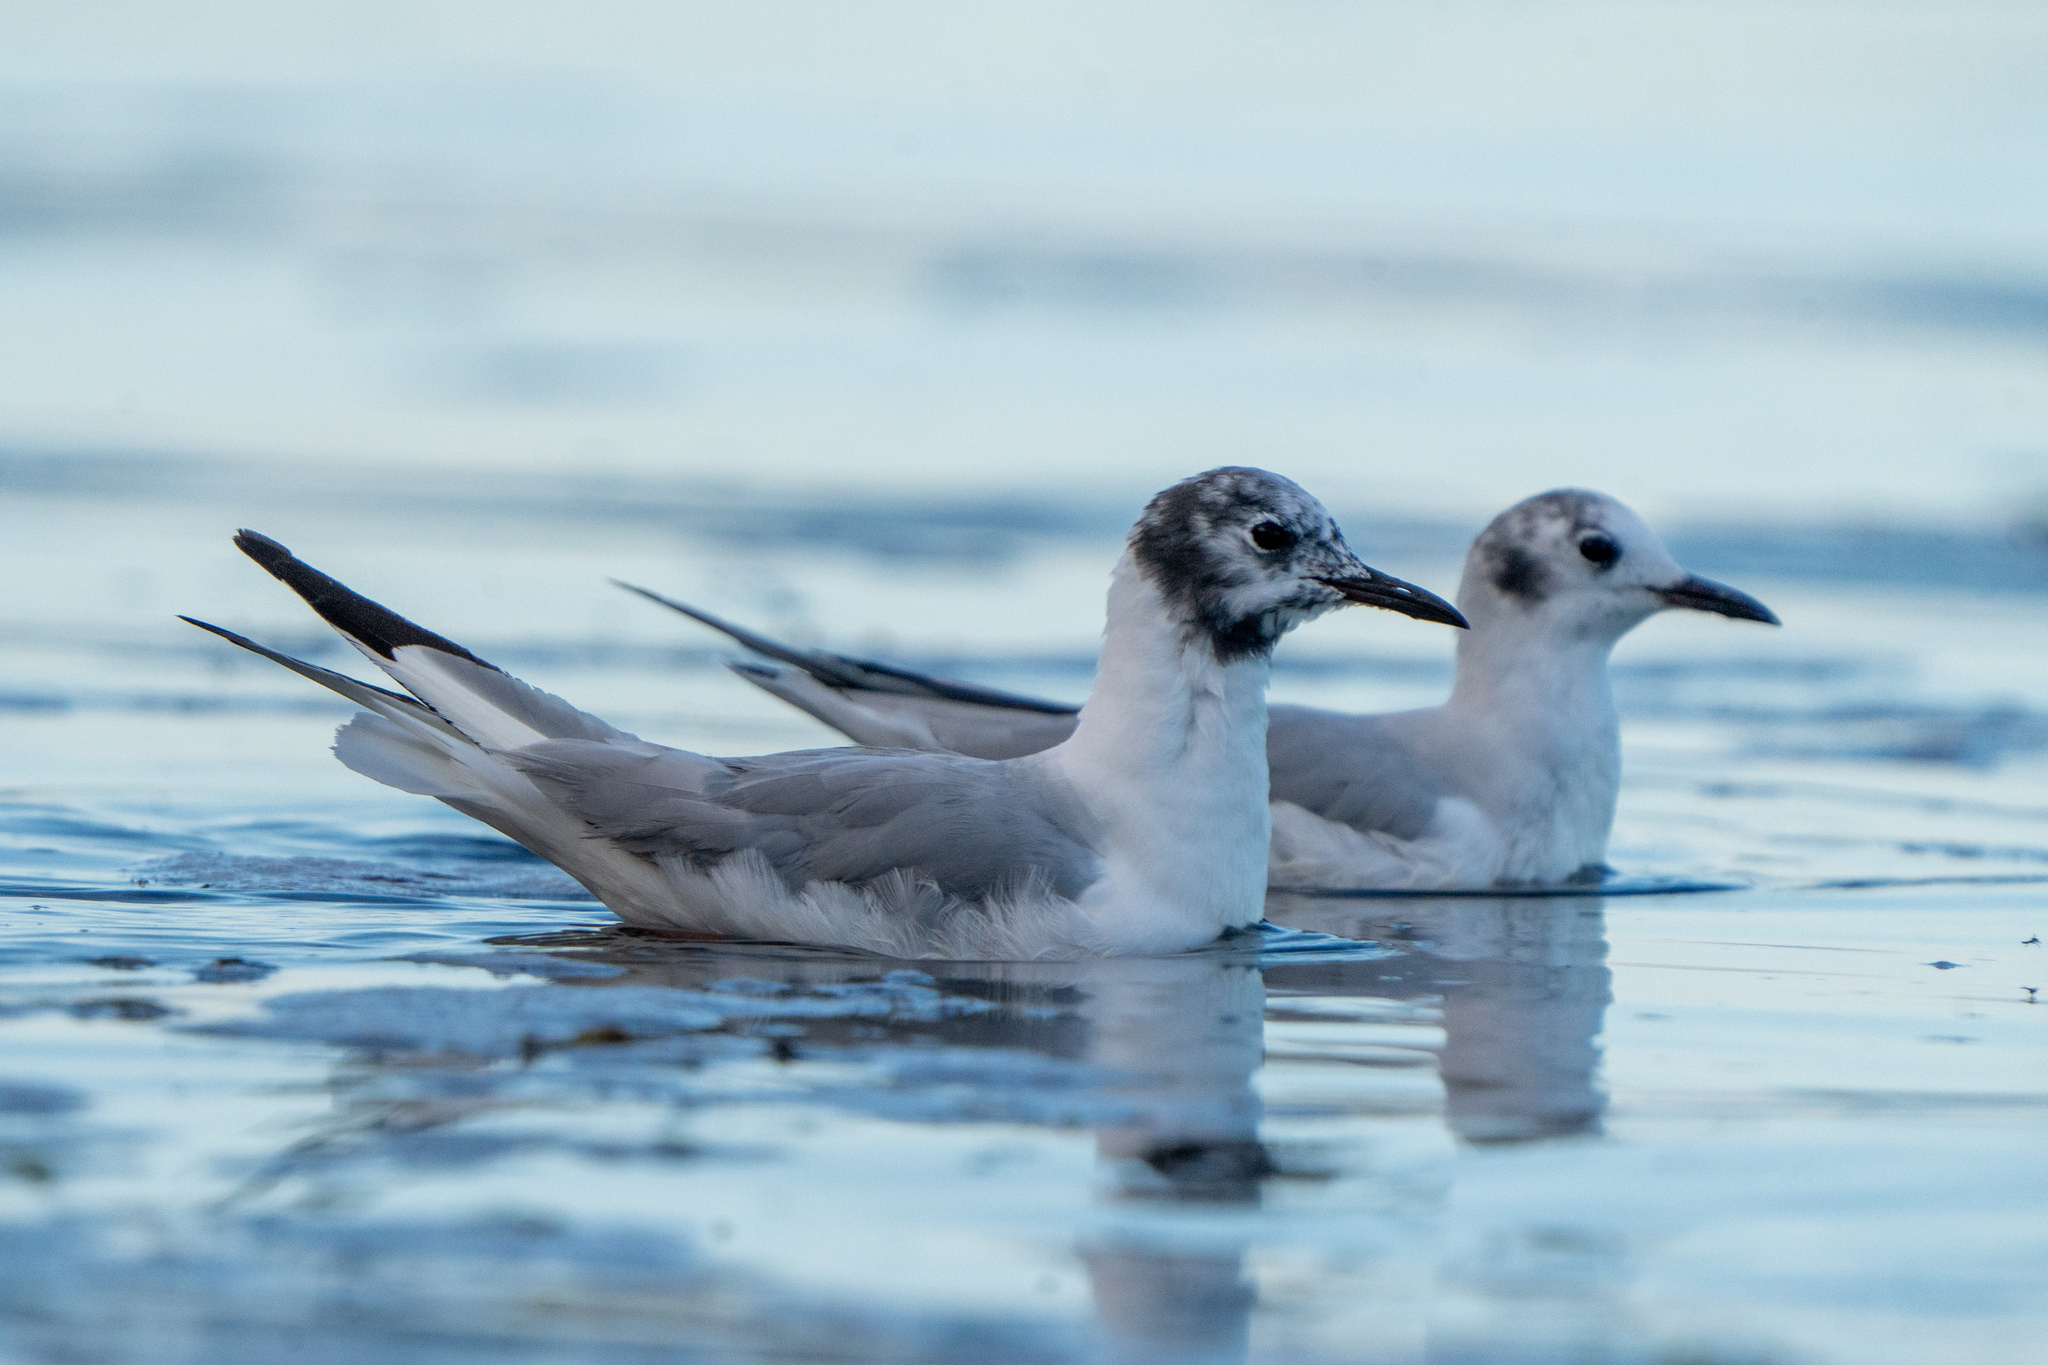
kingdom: Animalia
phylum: Chordata
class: Aves
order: Charadriiformes
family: Laridae
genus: Chroicocephalus
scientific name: Chroicocephalus philadelphia
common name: Bonaparte's gull
